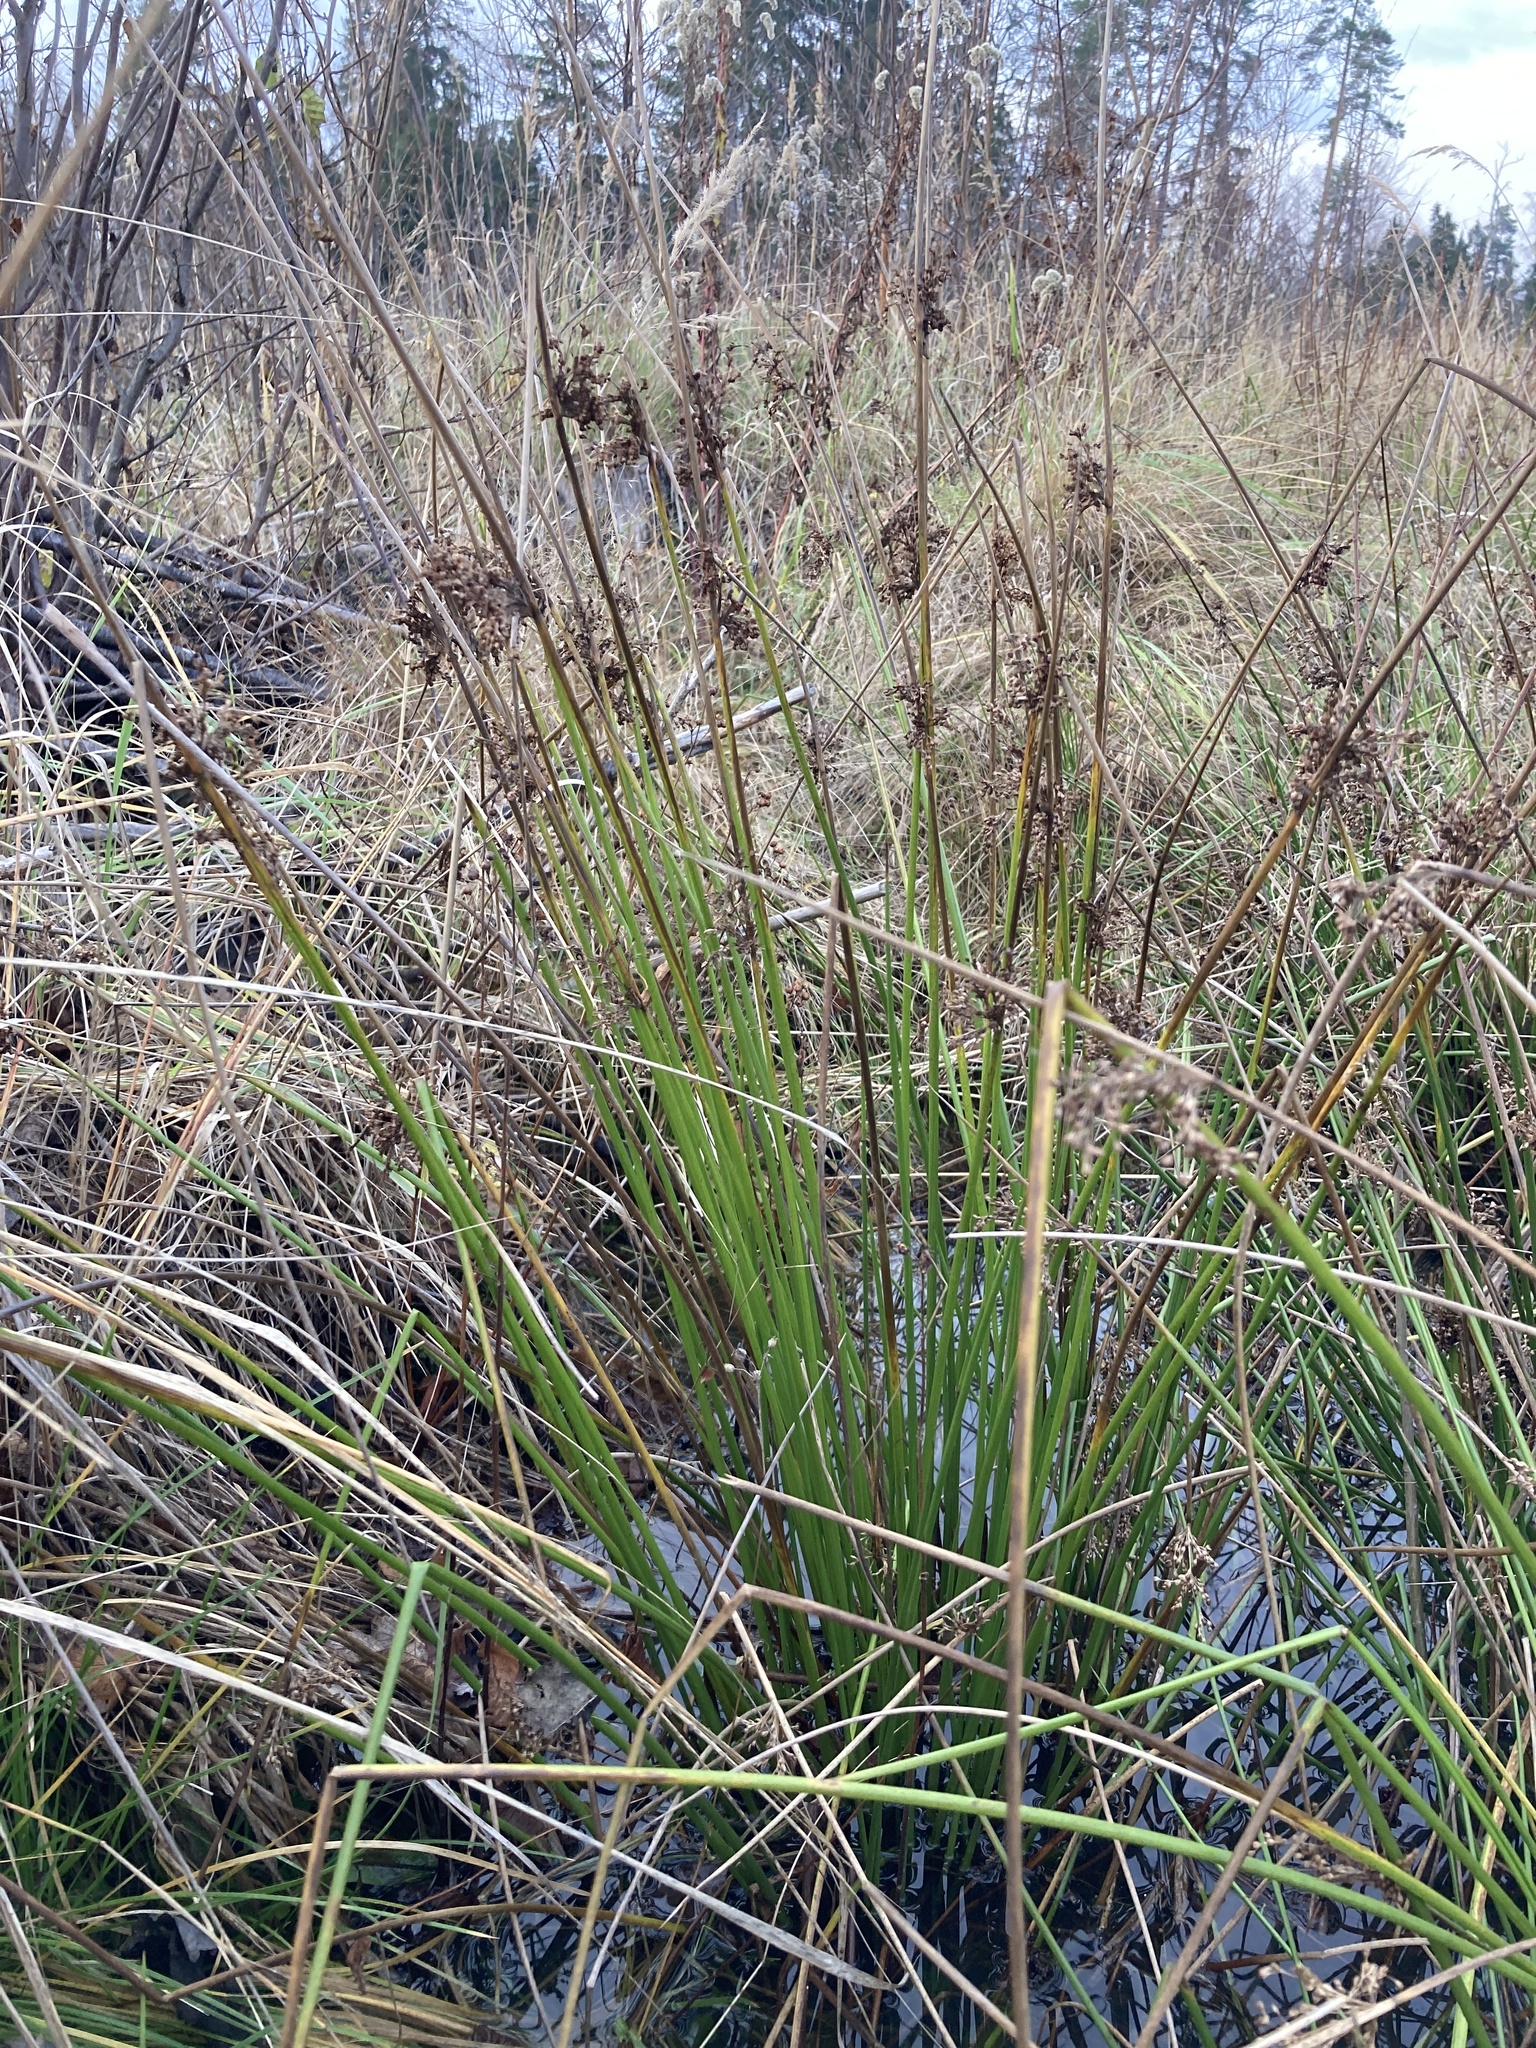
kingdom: Plantae
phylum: Tracheophyta
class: Liliopsida
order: Poales
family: Juncaceae
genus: Juncus
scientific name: Juncus effusus
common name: Soft rush
